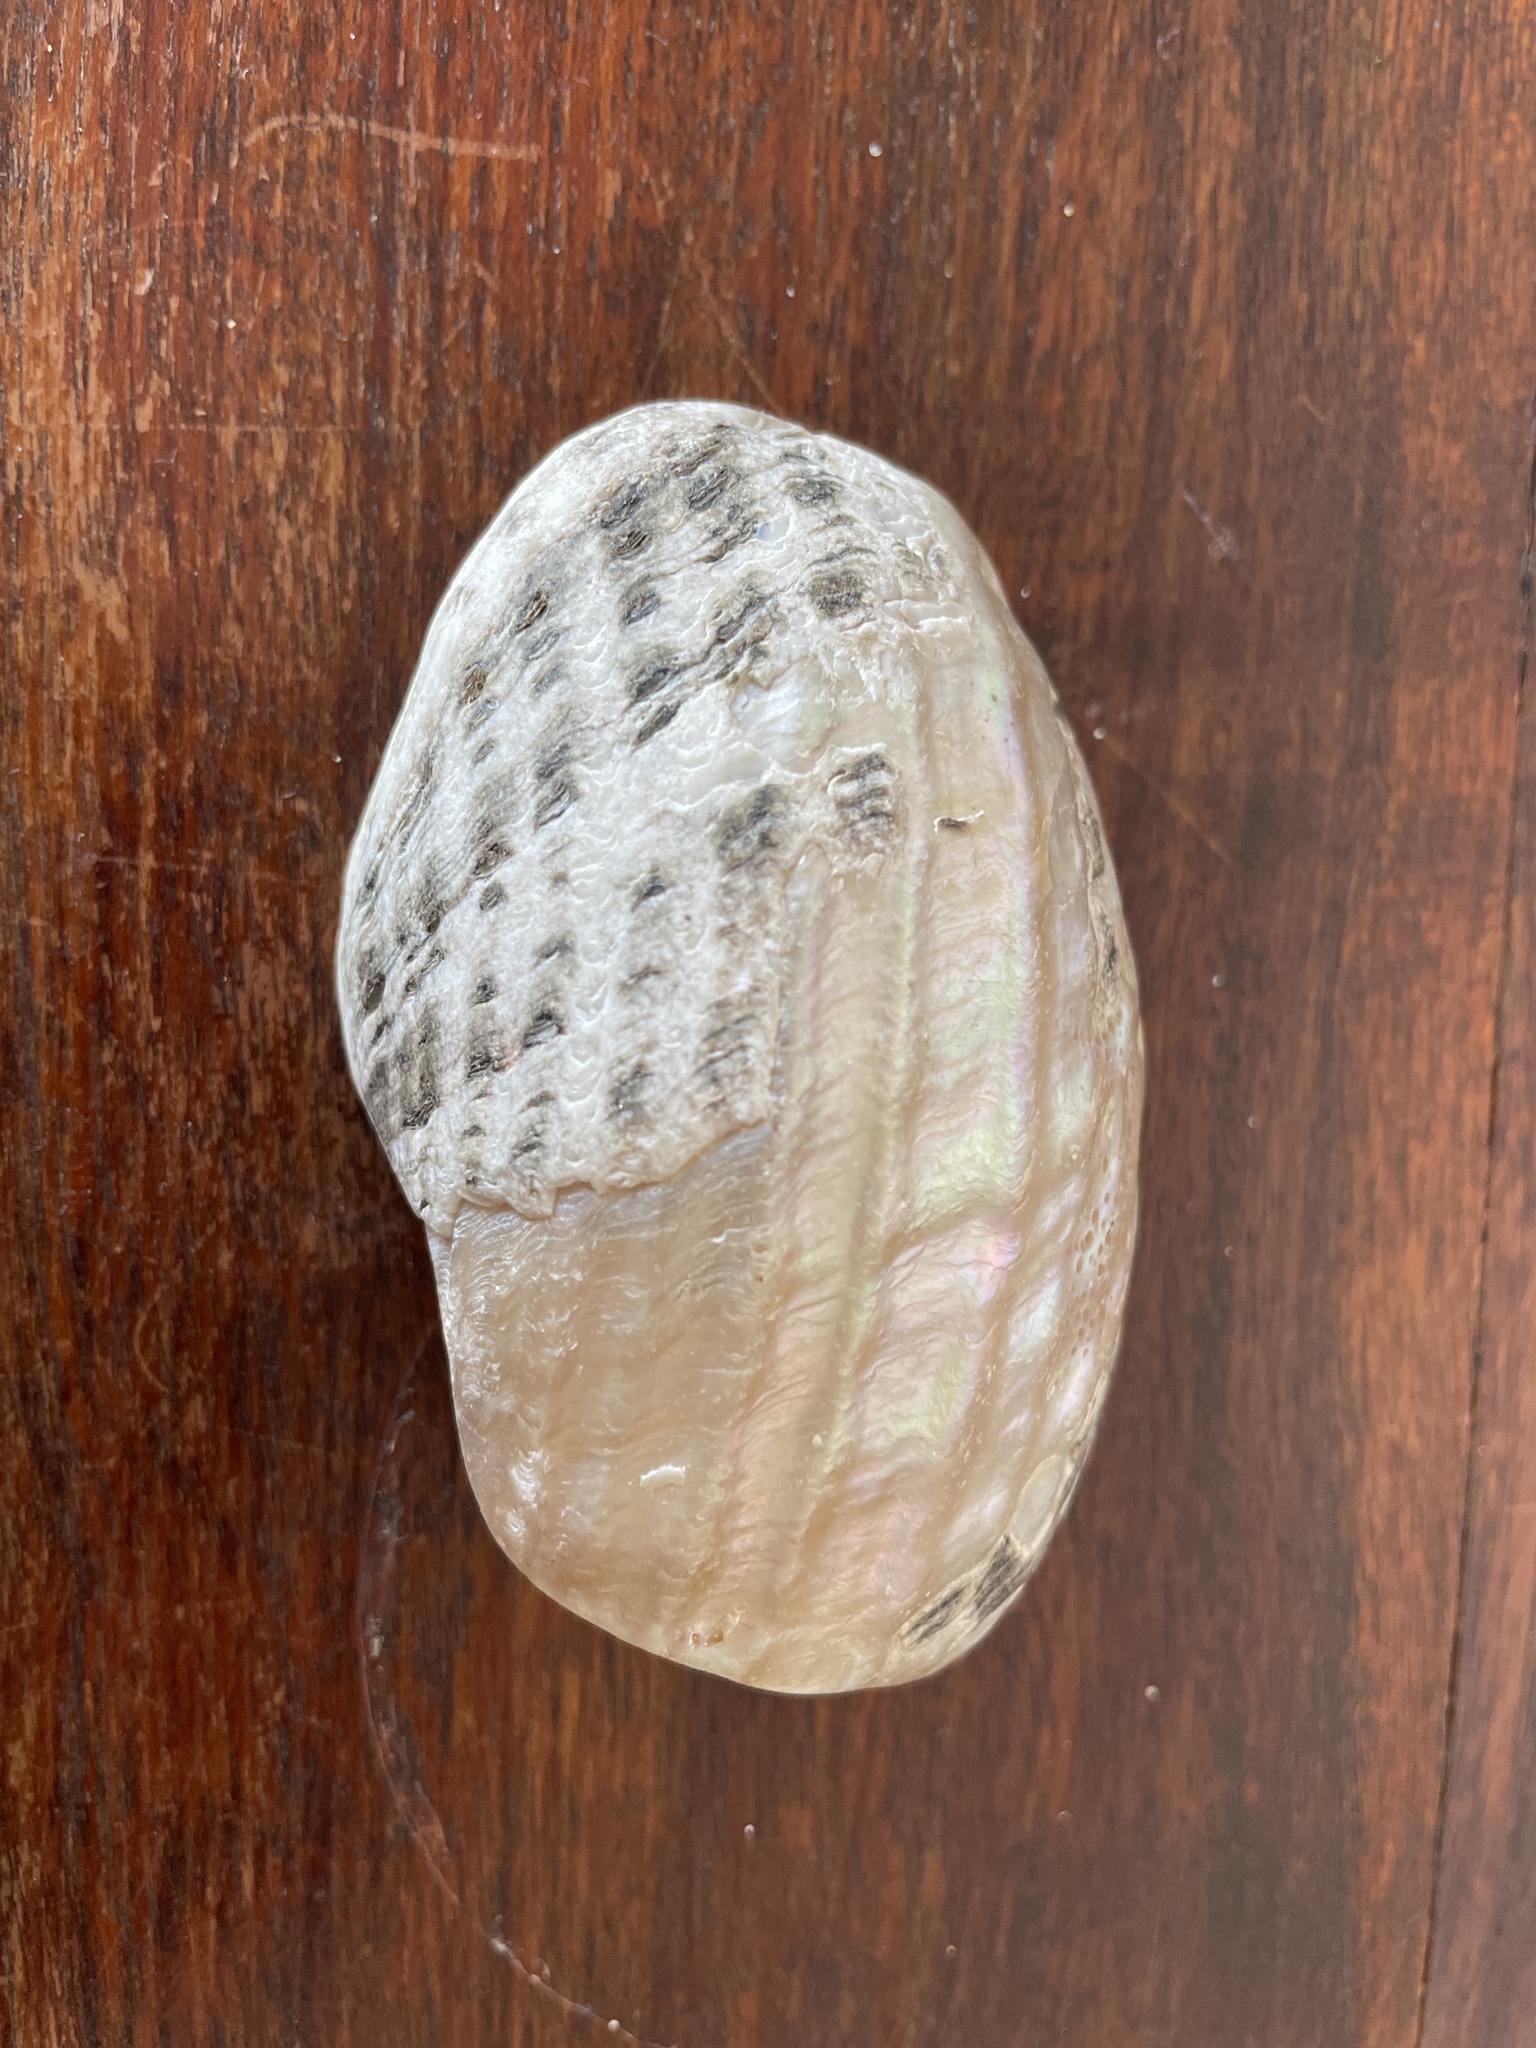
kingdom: Animalia
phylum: Mollusca
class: Gastropoda
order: Trochida
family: Turbinidae
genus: Lunella
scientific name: Lunella torquata
